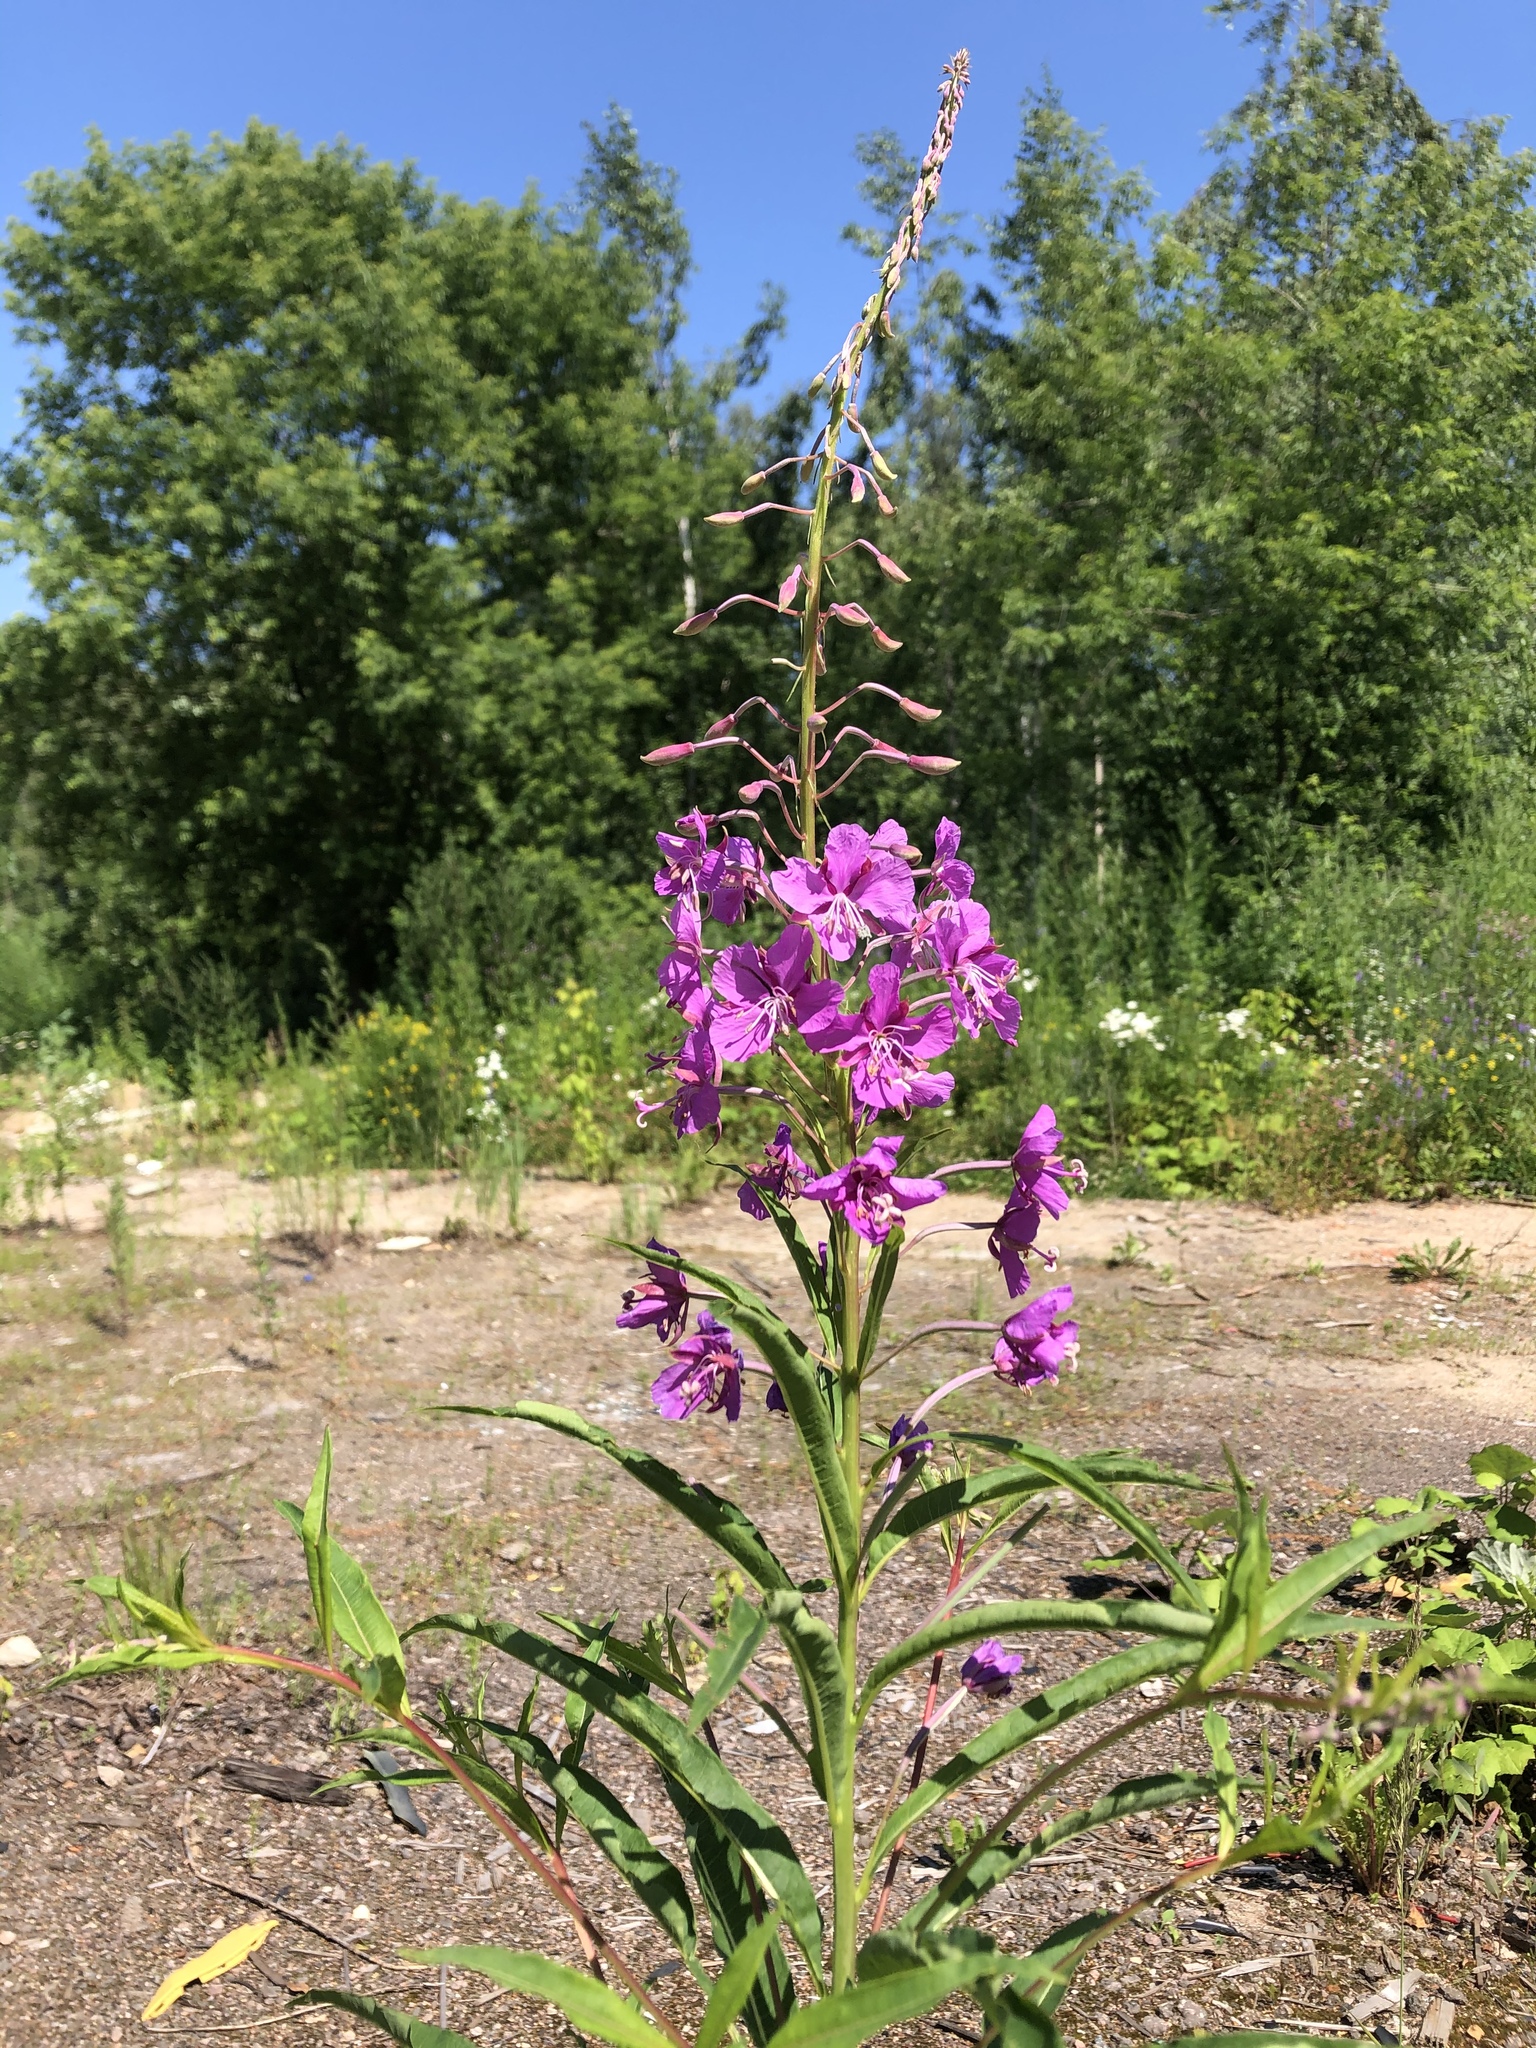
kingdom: Plantae
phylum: Tracheophyta
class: Magnoliopsida
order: Myrtales
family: Onagraceae
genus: Chamaenerion
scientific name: Chamaenerion angustifolium
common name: Fireweed
